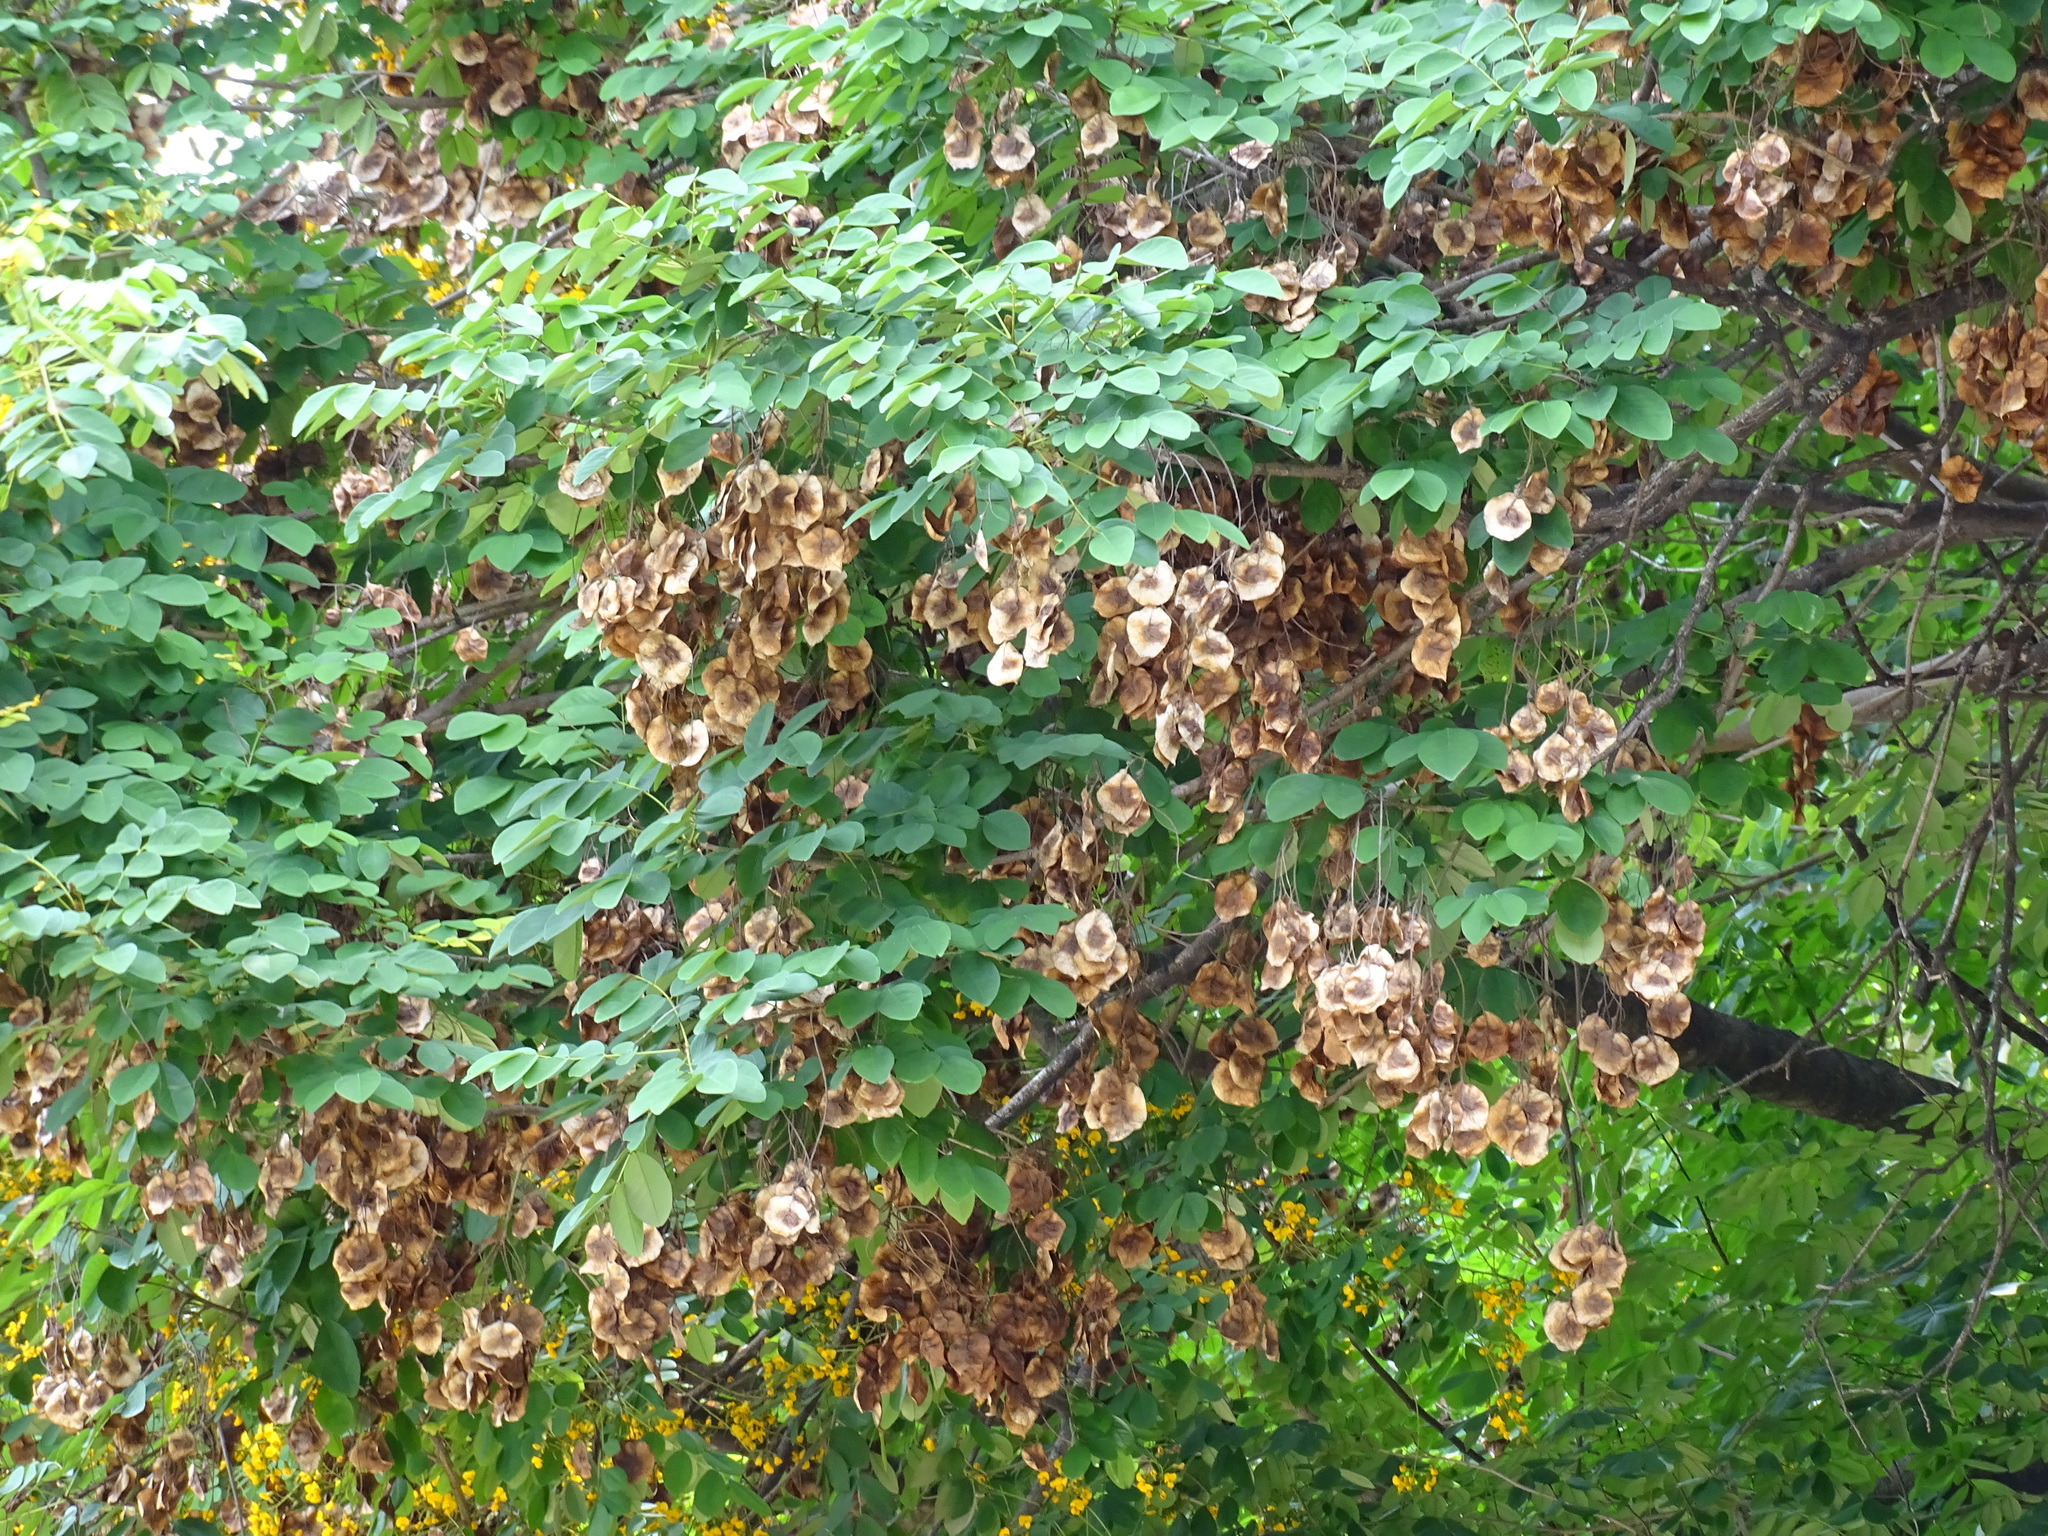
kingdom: Plantae
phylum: Tracheophyta
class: Magnoliopsida
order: Fabales
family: Fabaceae
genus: Pterocarpus
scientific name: Pterocarpus rohrii
